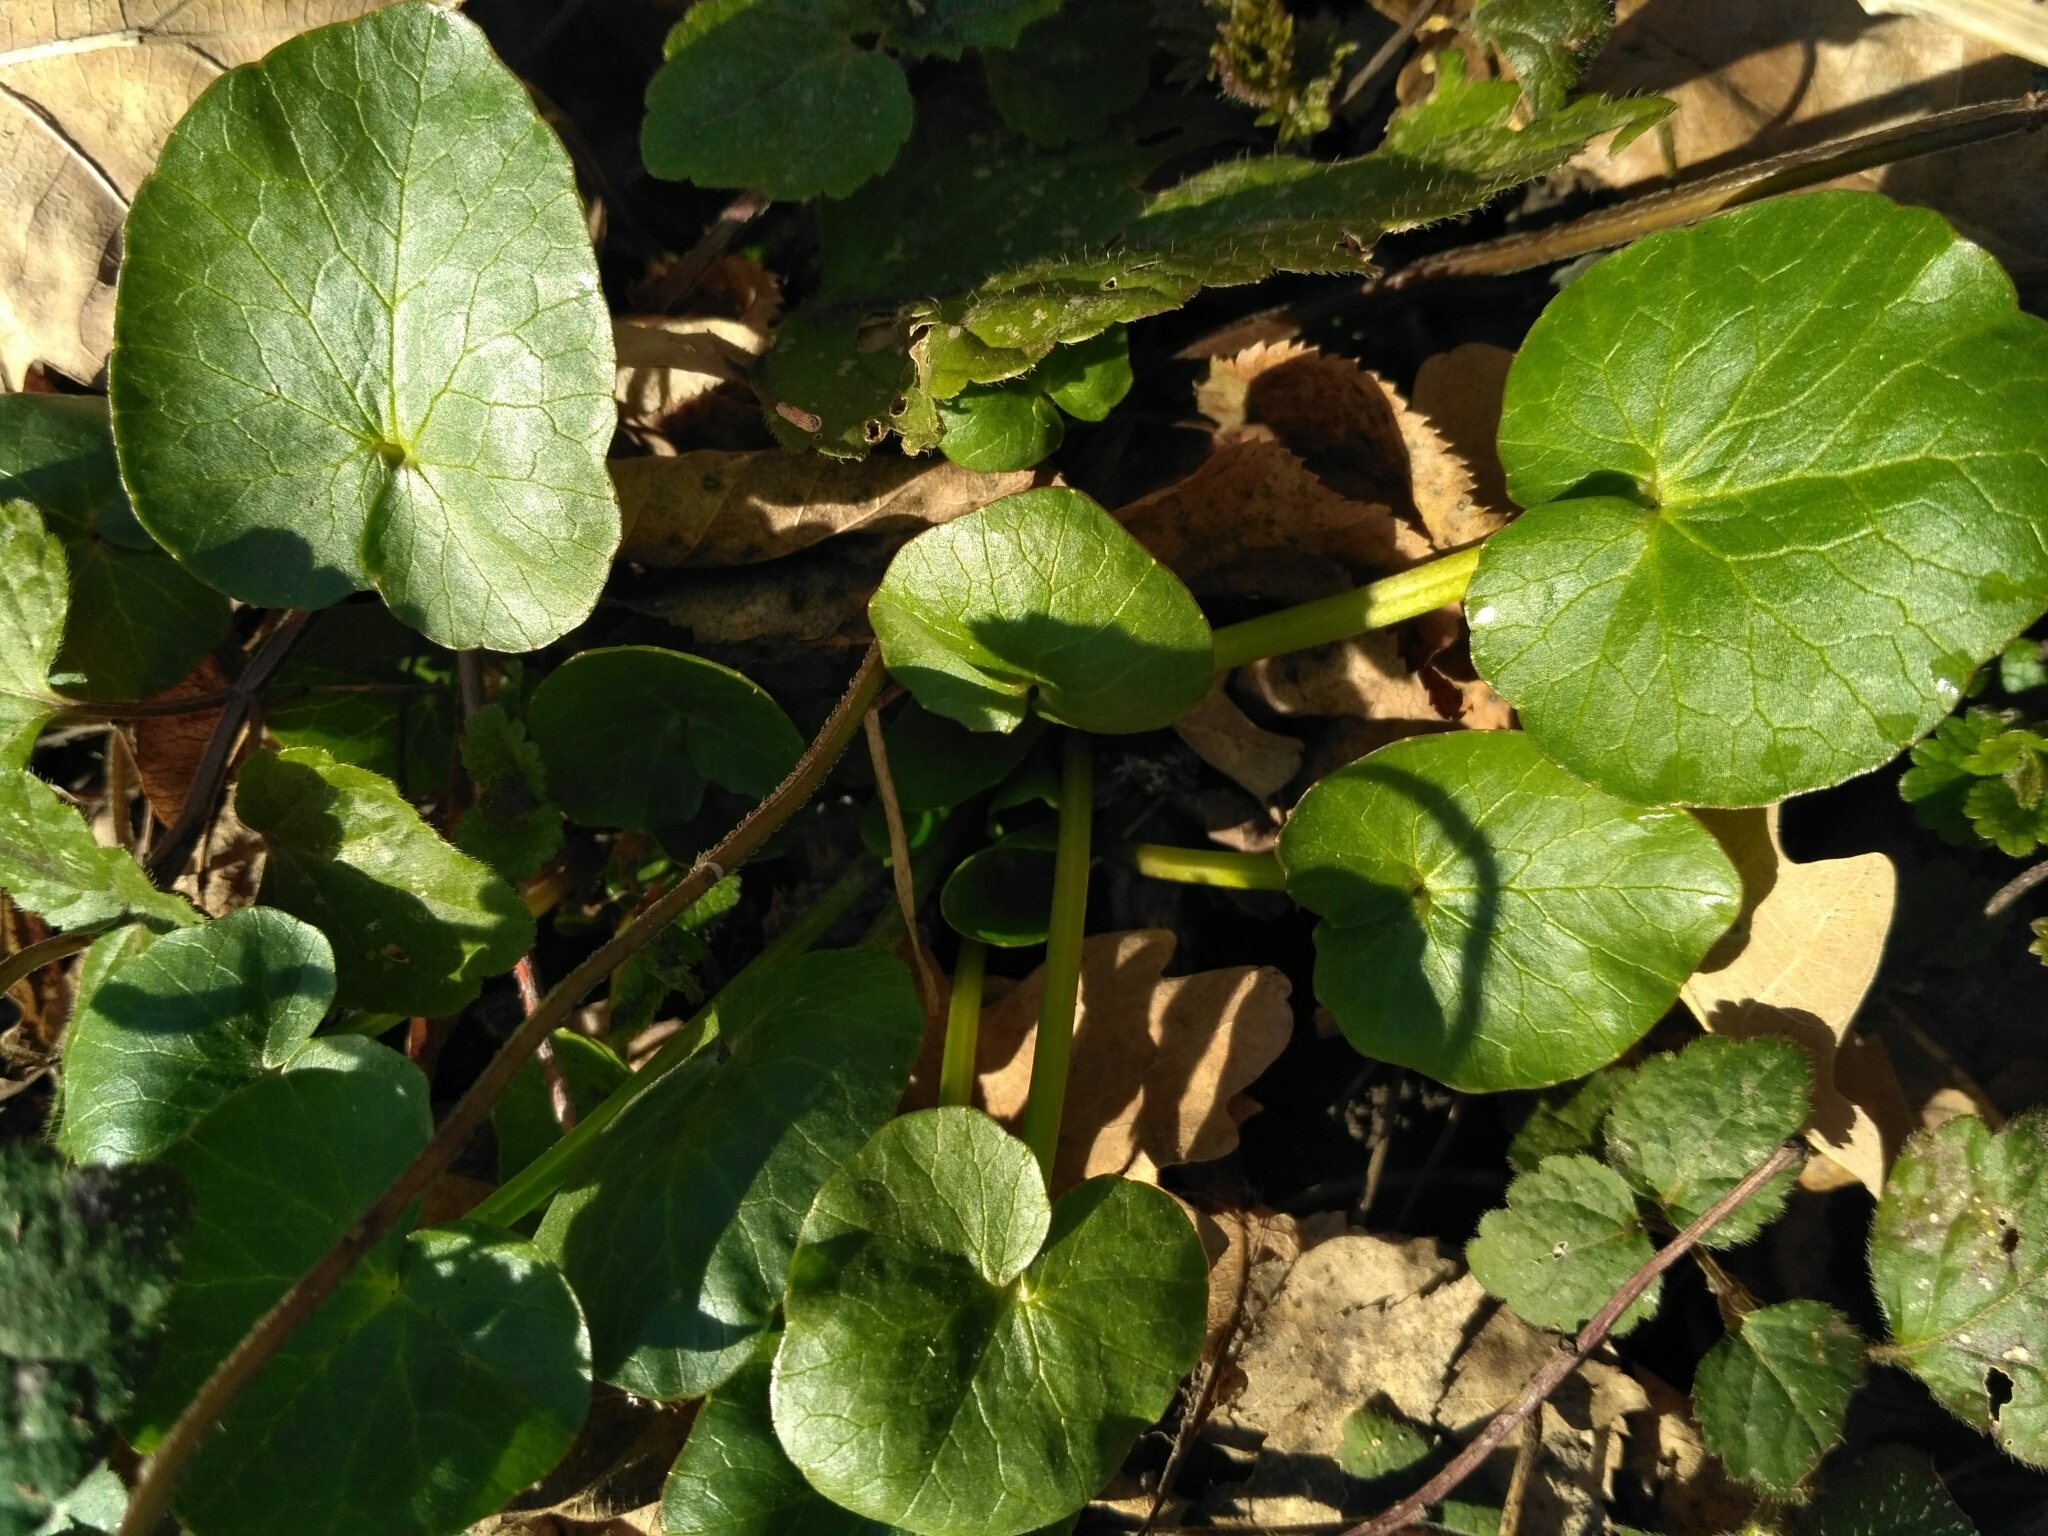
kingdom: Plantae
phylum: Tracheophyta
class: Magnoliopsida
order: Ranunculales
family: Ranunculaceae
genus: Ficaria
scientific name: Ficaria verna
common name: Lesser celandine
